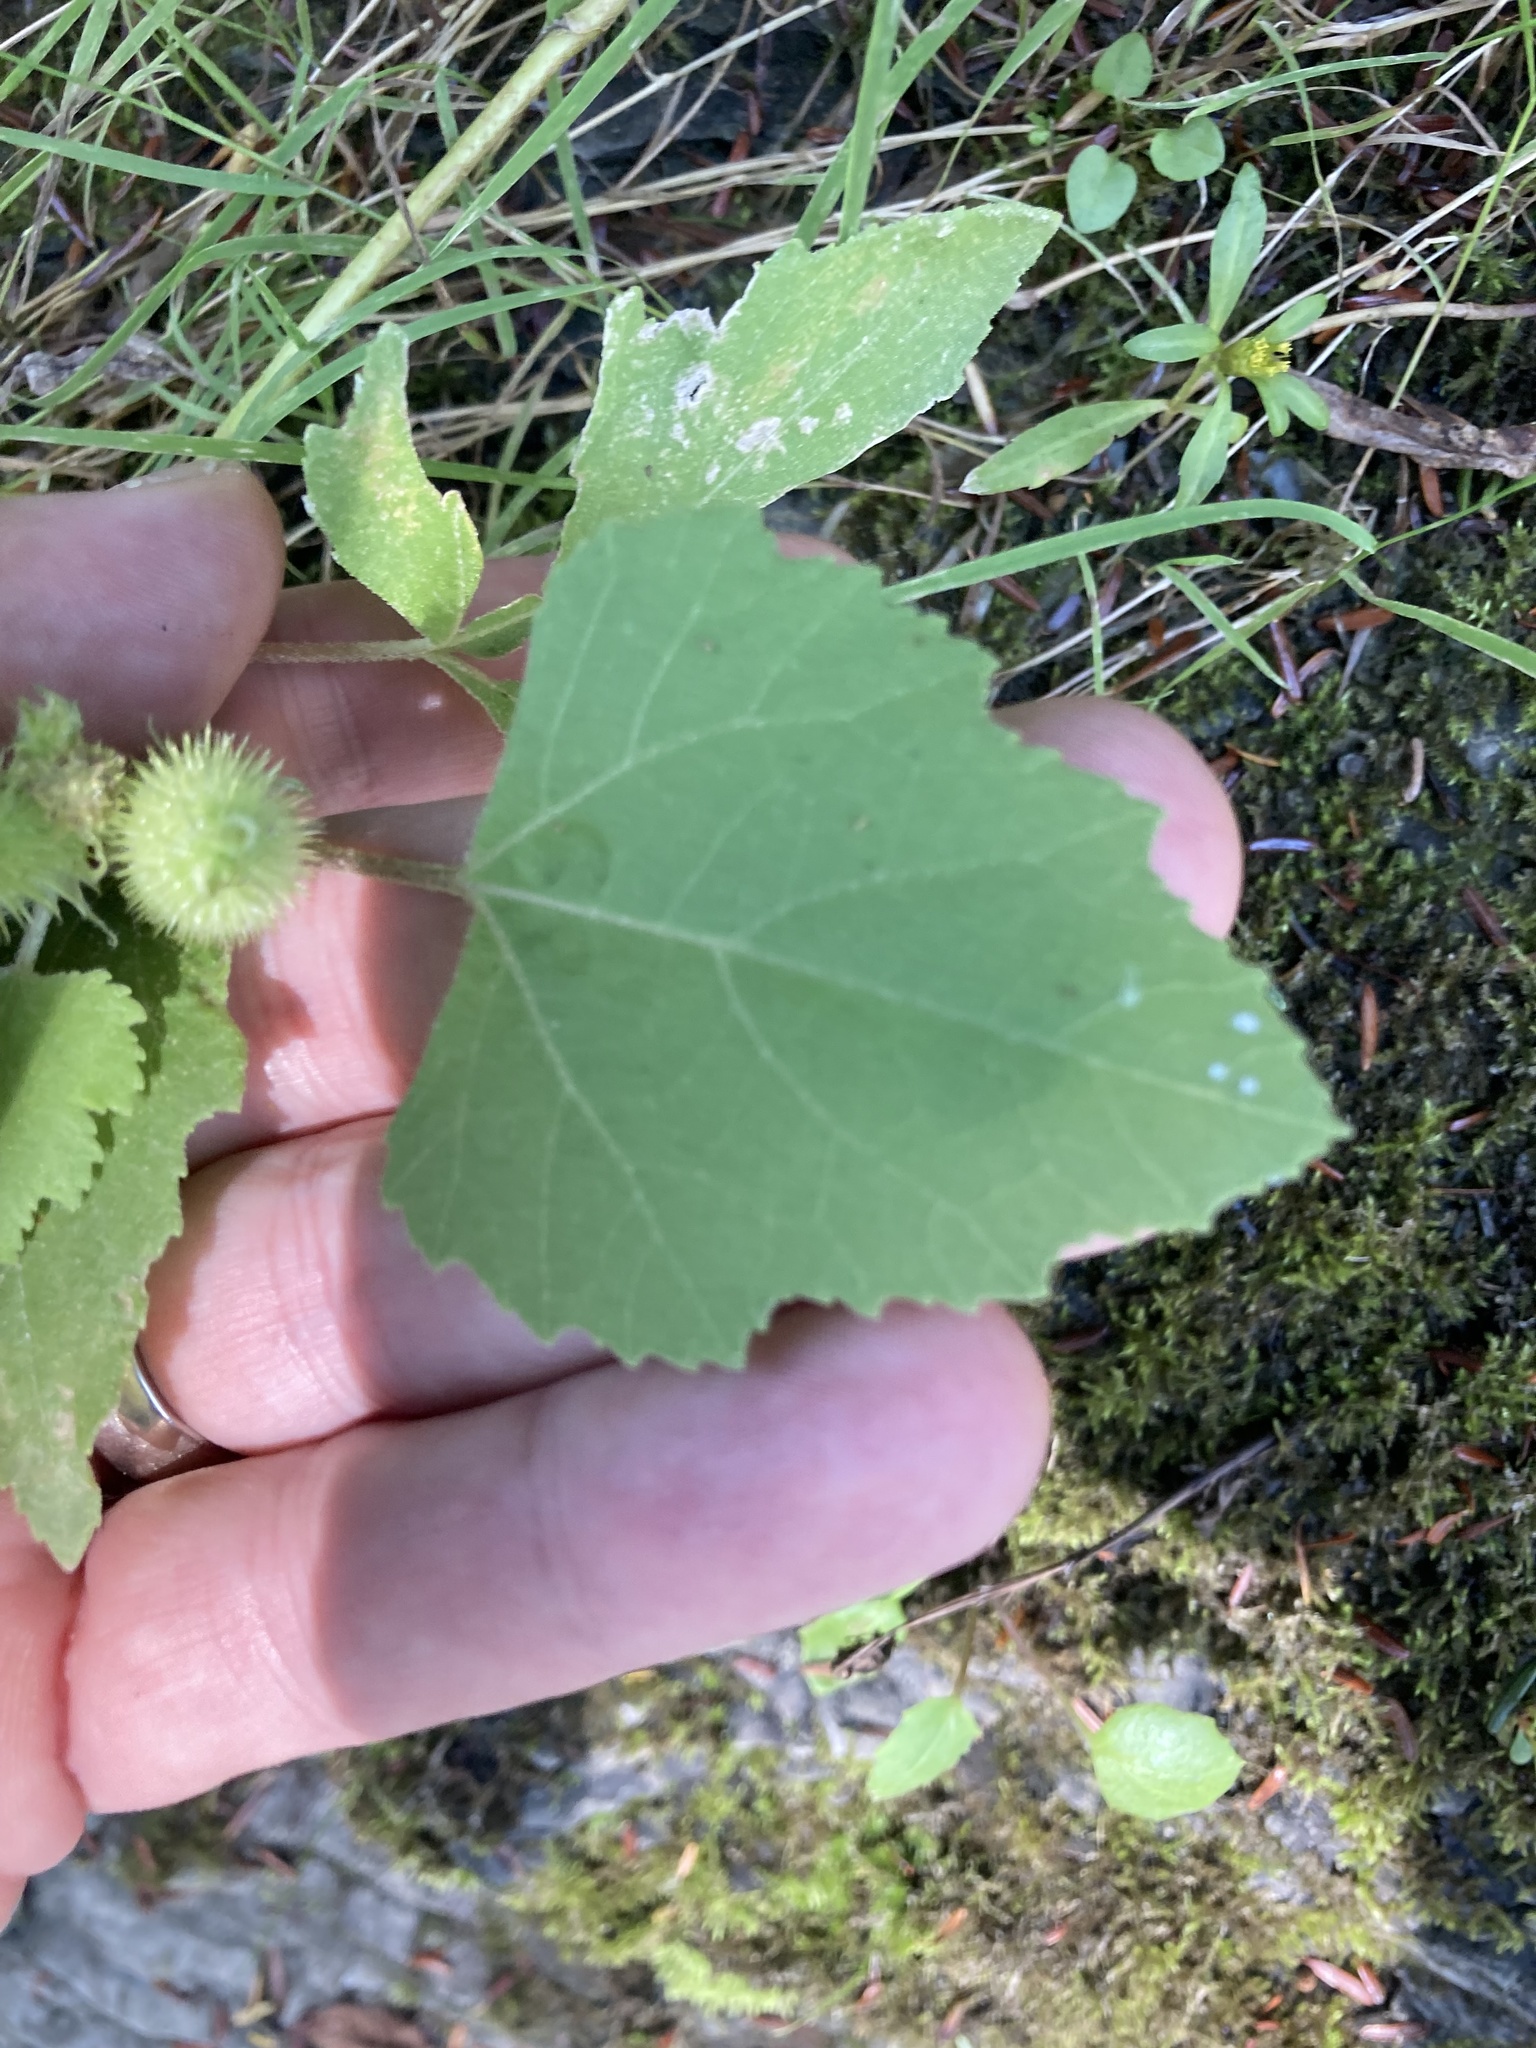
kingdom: Plantae
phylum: Tracheophyta
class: Magnoliopsida
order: Asterales
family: Asteraceae
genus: Xanthium
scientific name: Xanthium strumarium
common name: Rough cocklebur
